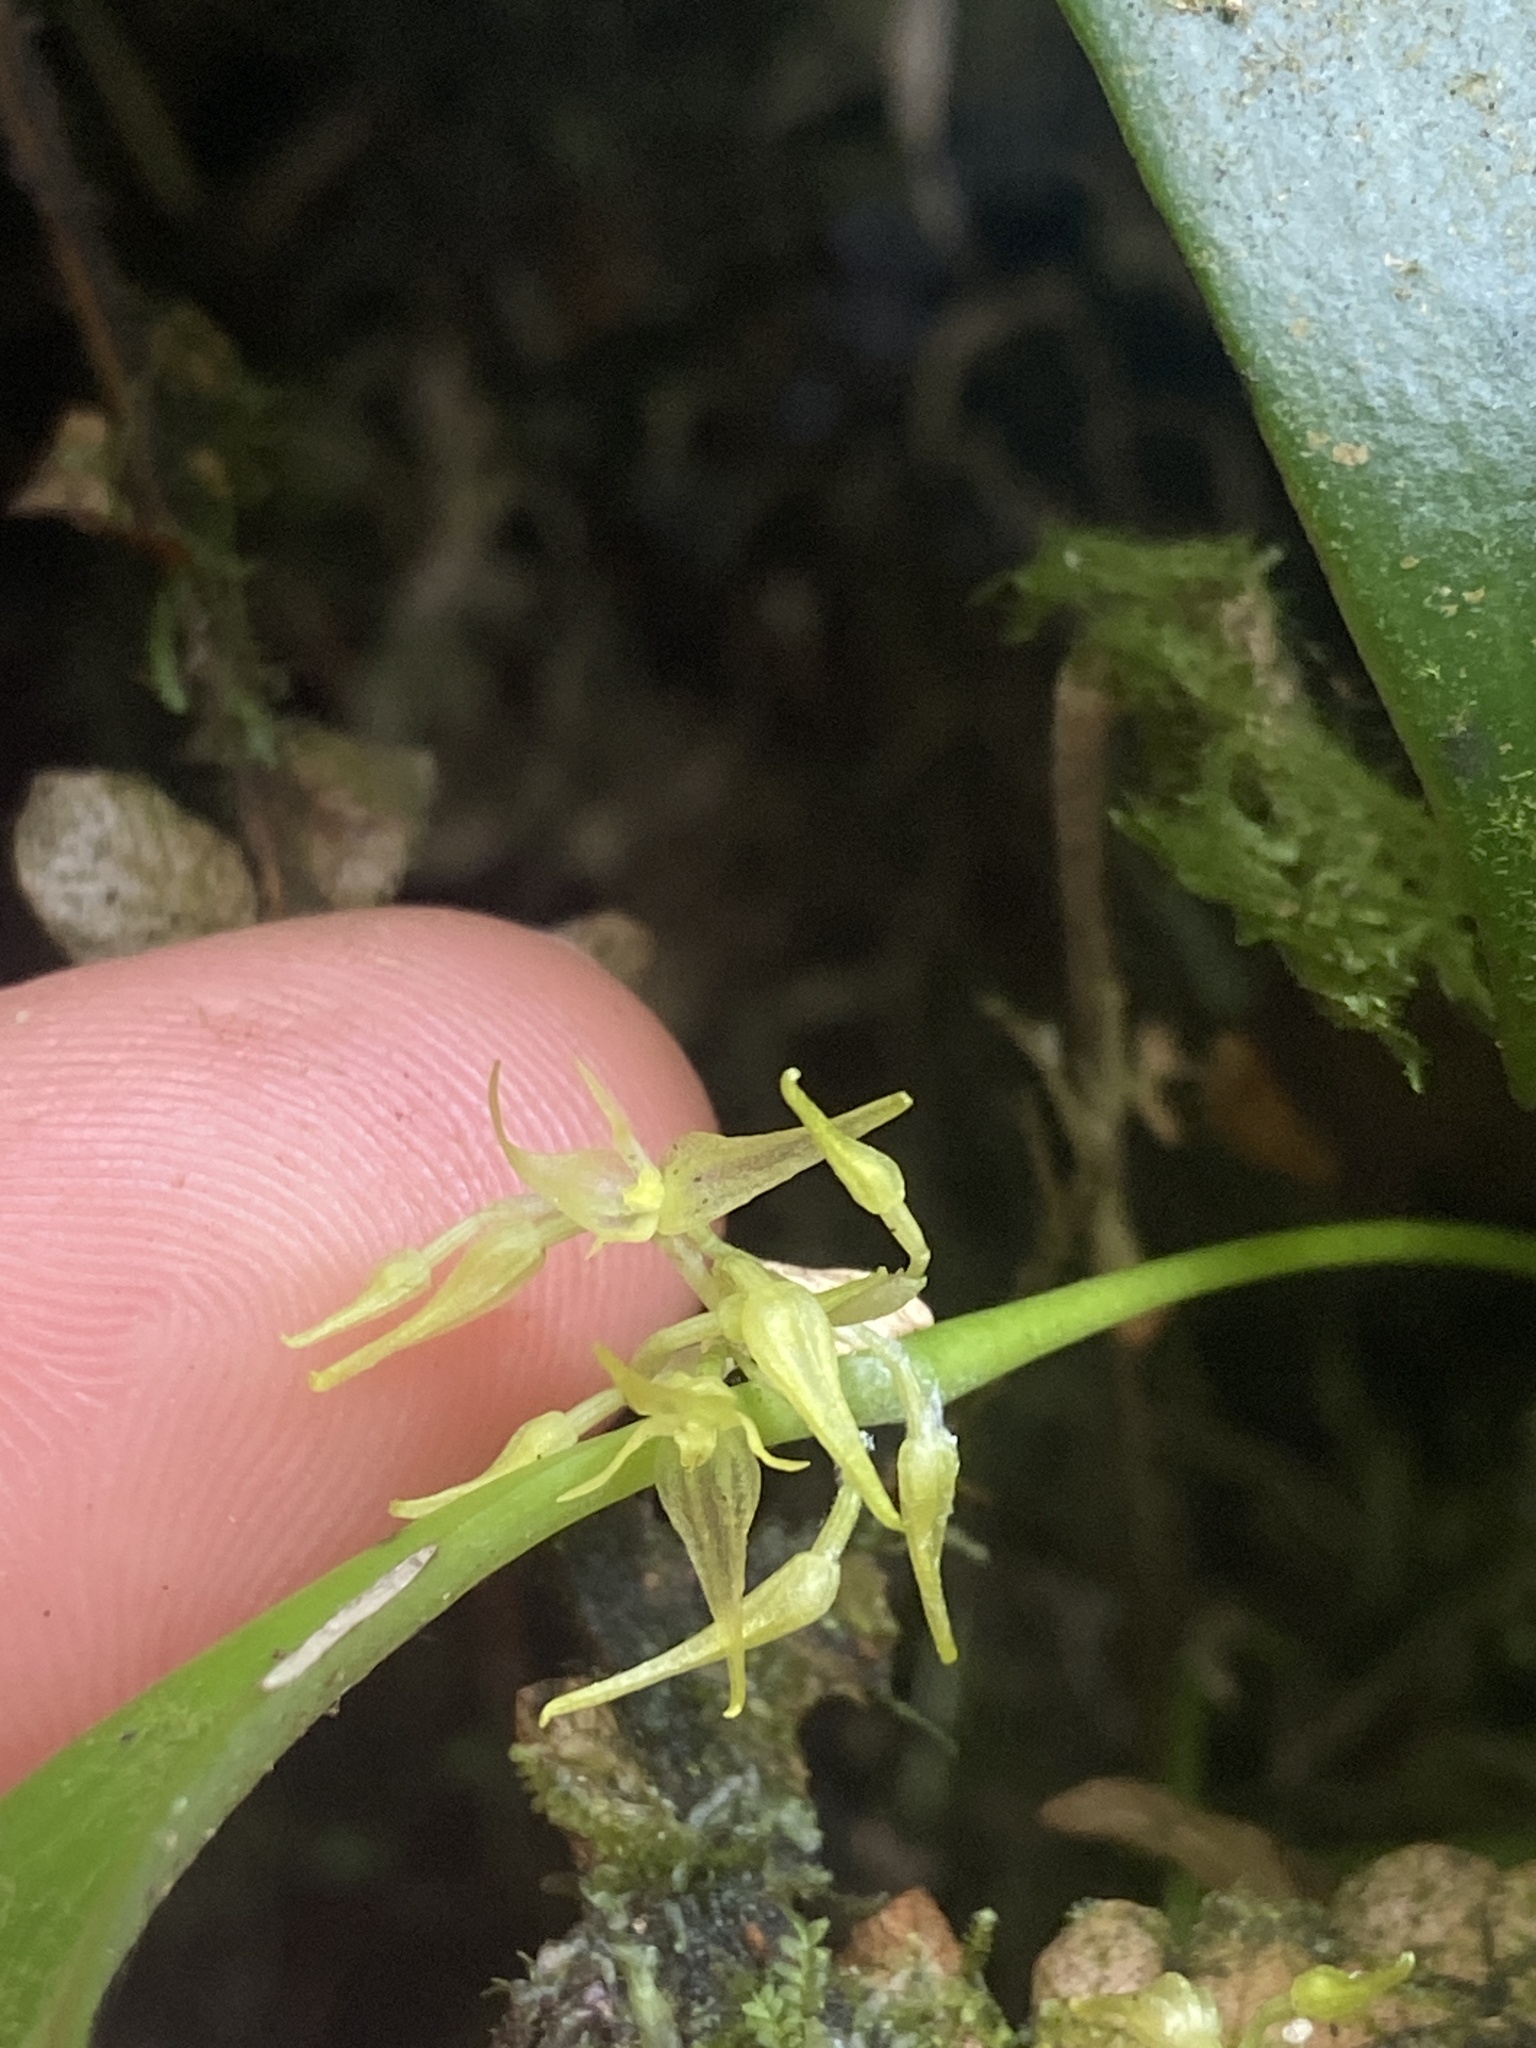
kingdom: Plantae
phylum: Tracheophyta
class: Liliopsida
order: Asparagales
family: Orchidaceae
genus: Pleurothallis
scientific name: Pleurothallis ruscifolia
